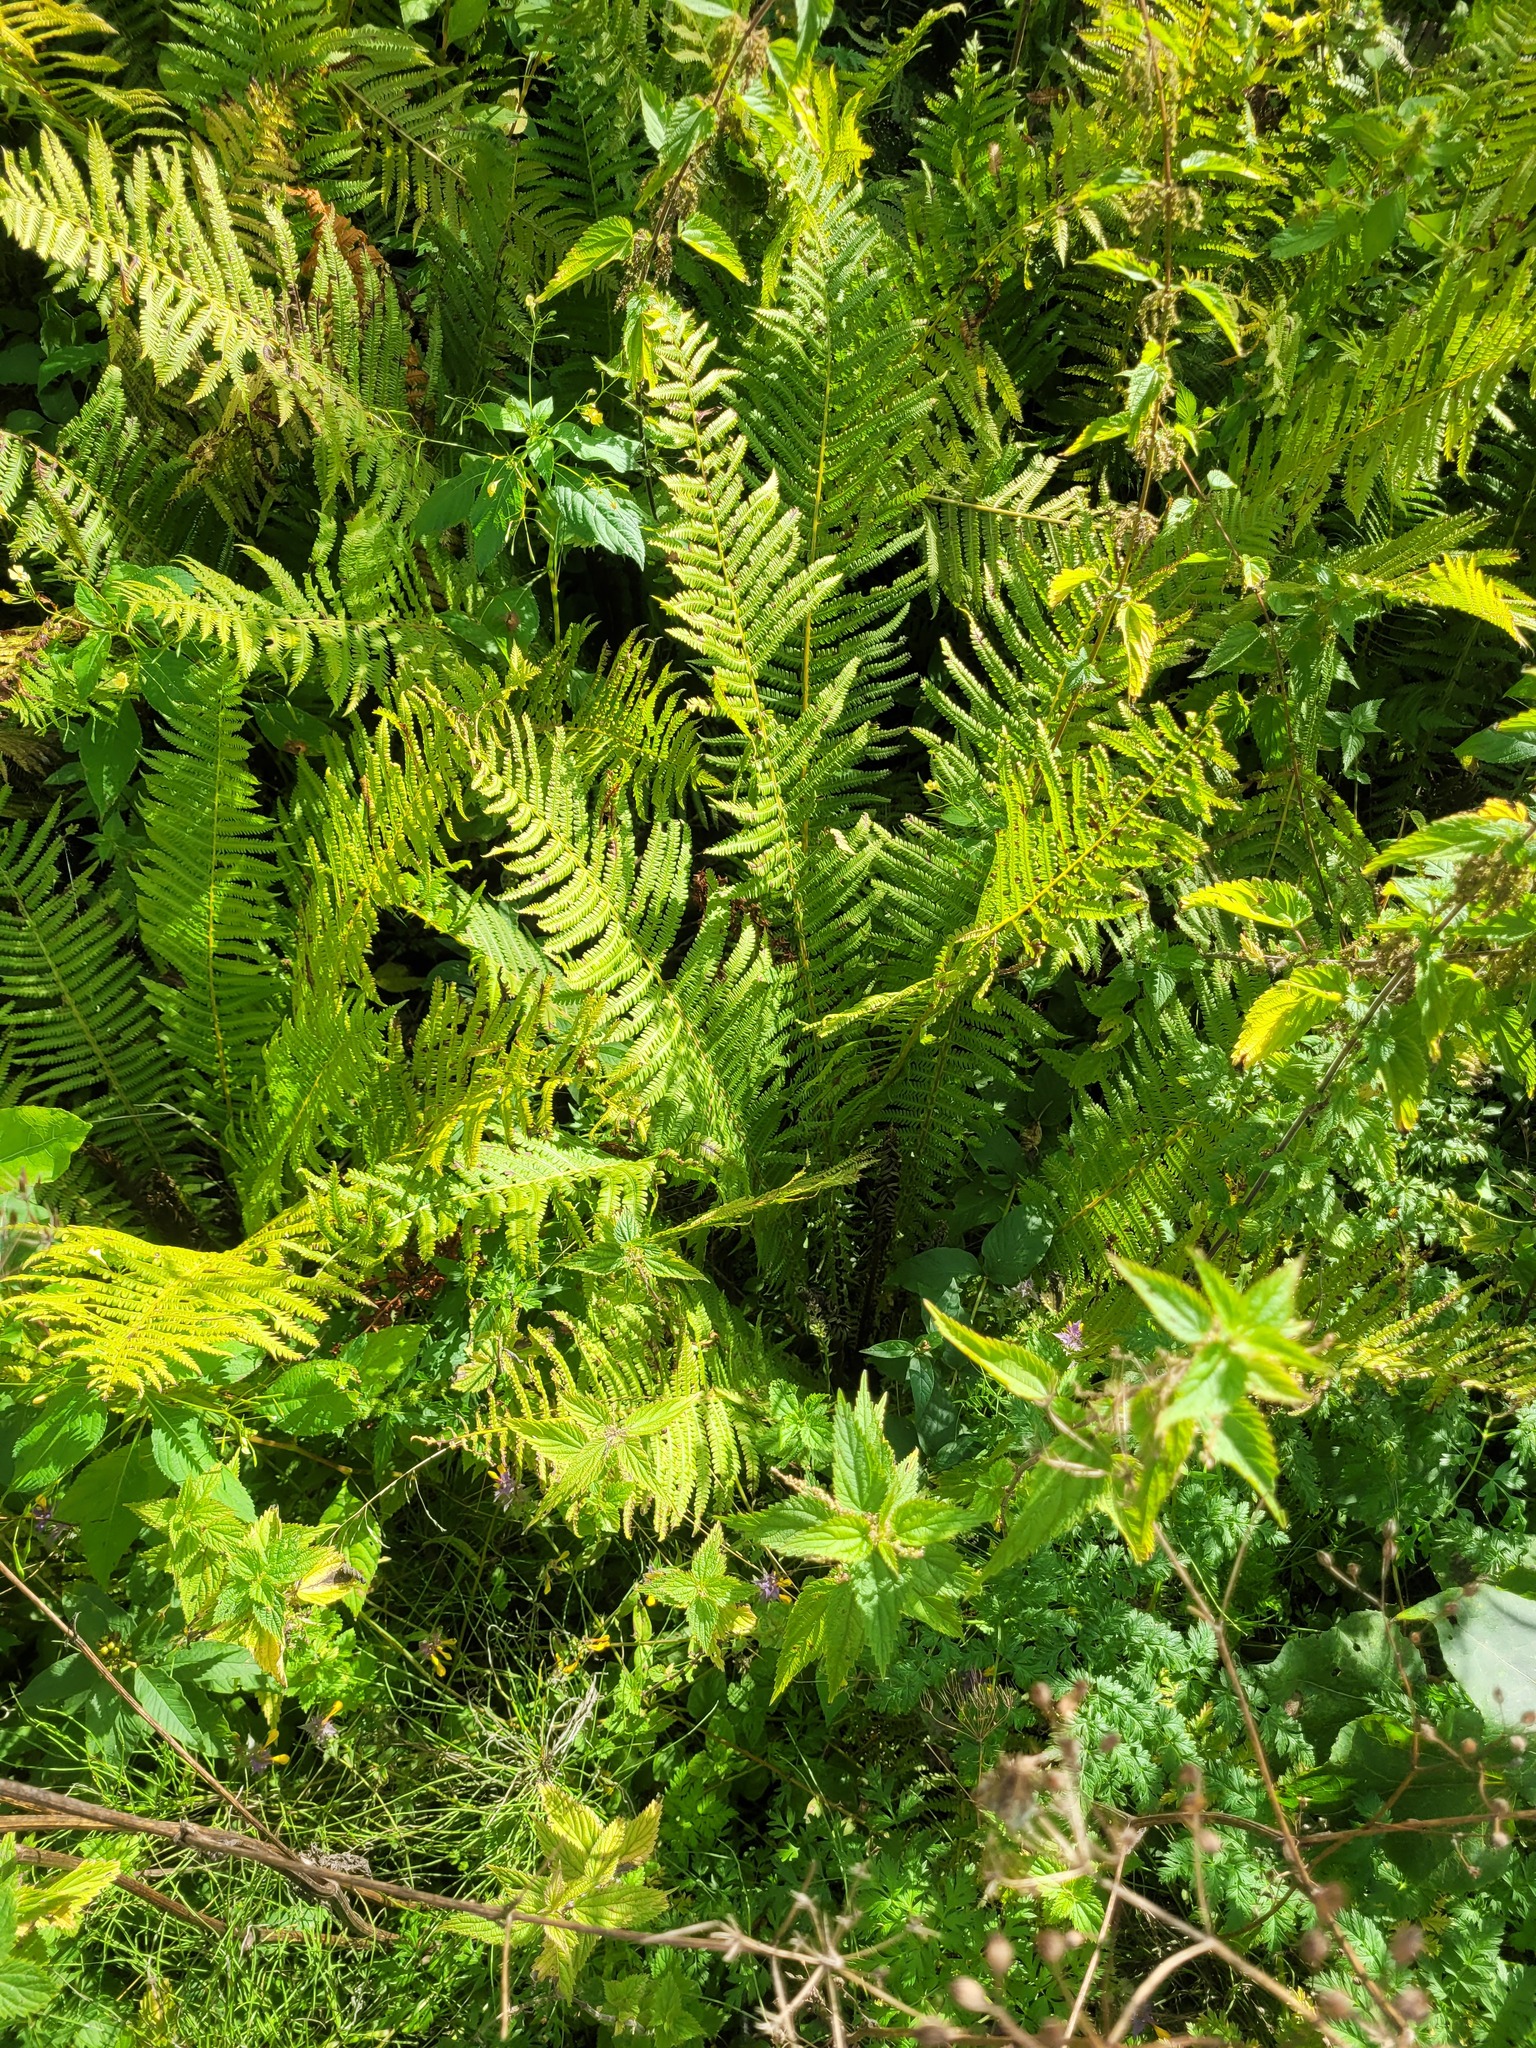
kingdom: Plantae
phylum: Tracheophyta
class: Polypodiopsida
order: Polypodiales
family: Onocleaceae
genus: Matteuccia
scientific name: Matteuccia struthiopteris
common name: Ostrich fern
